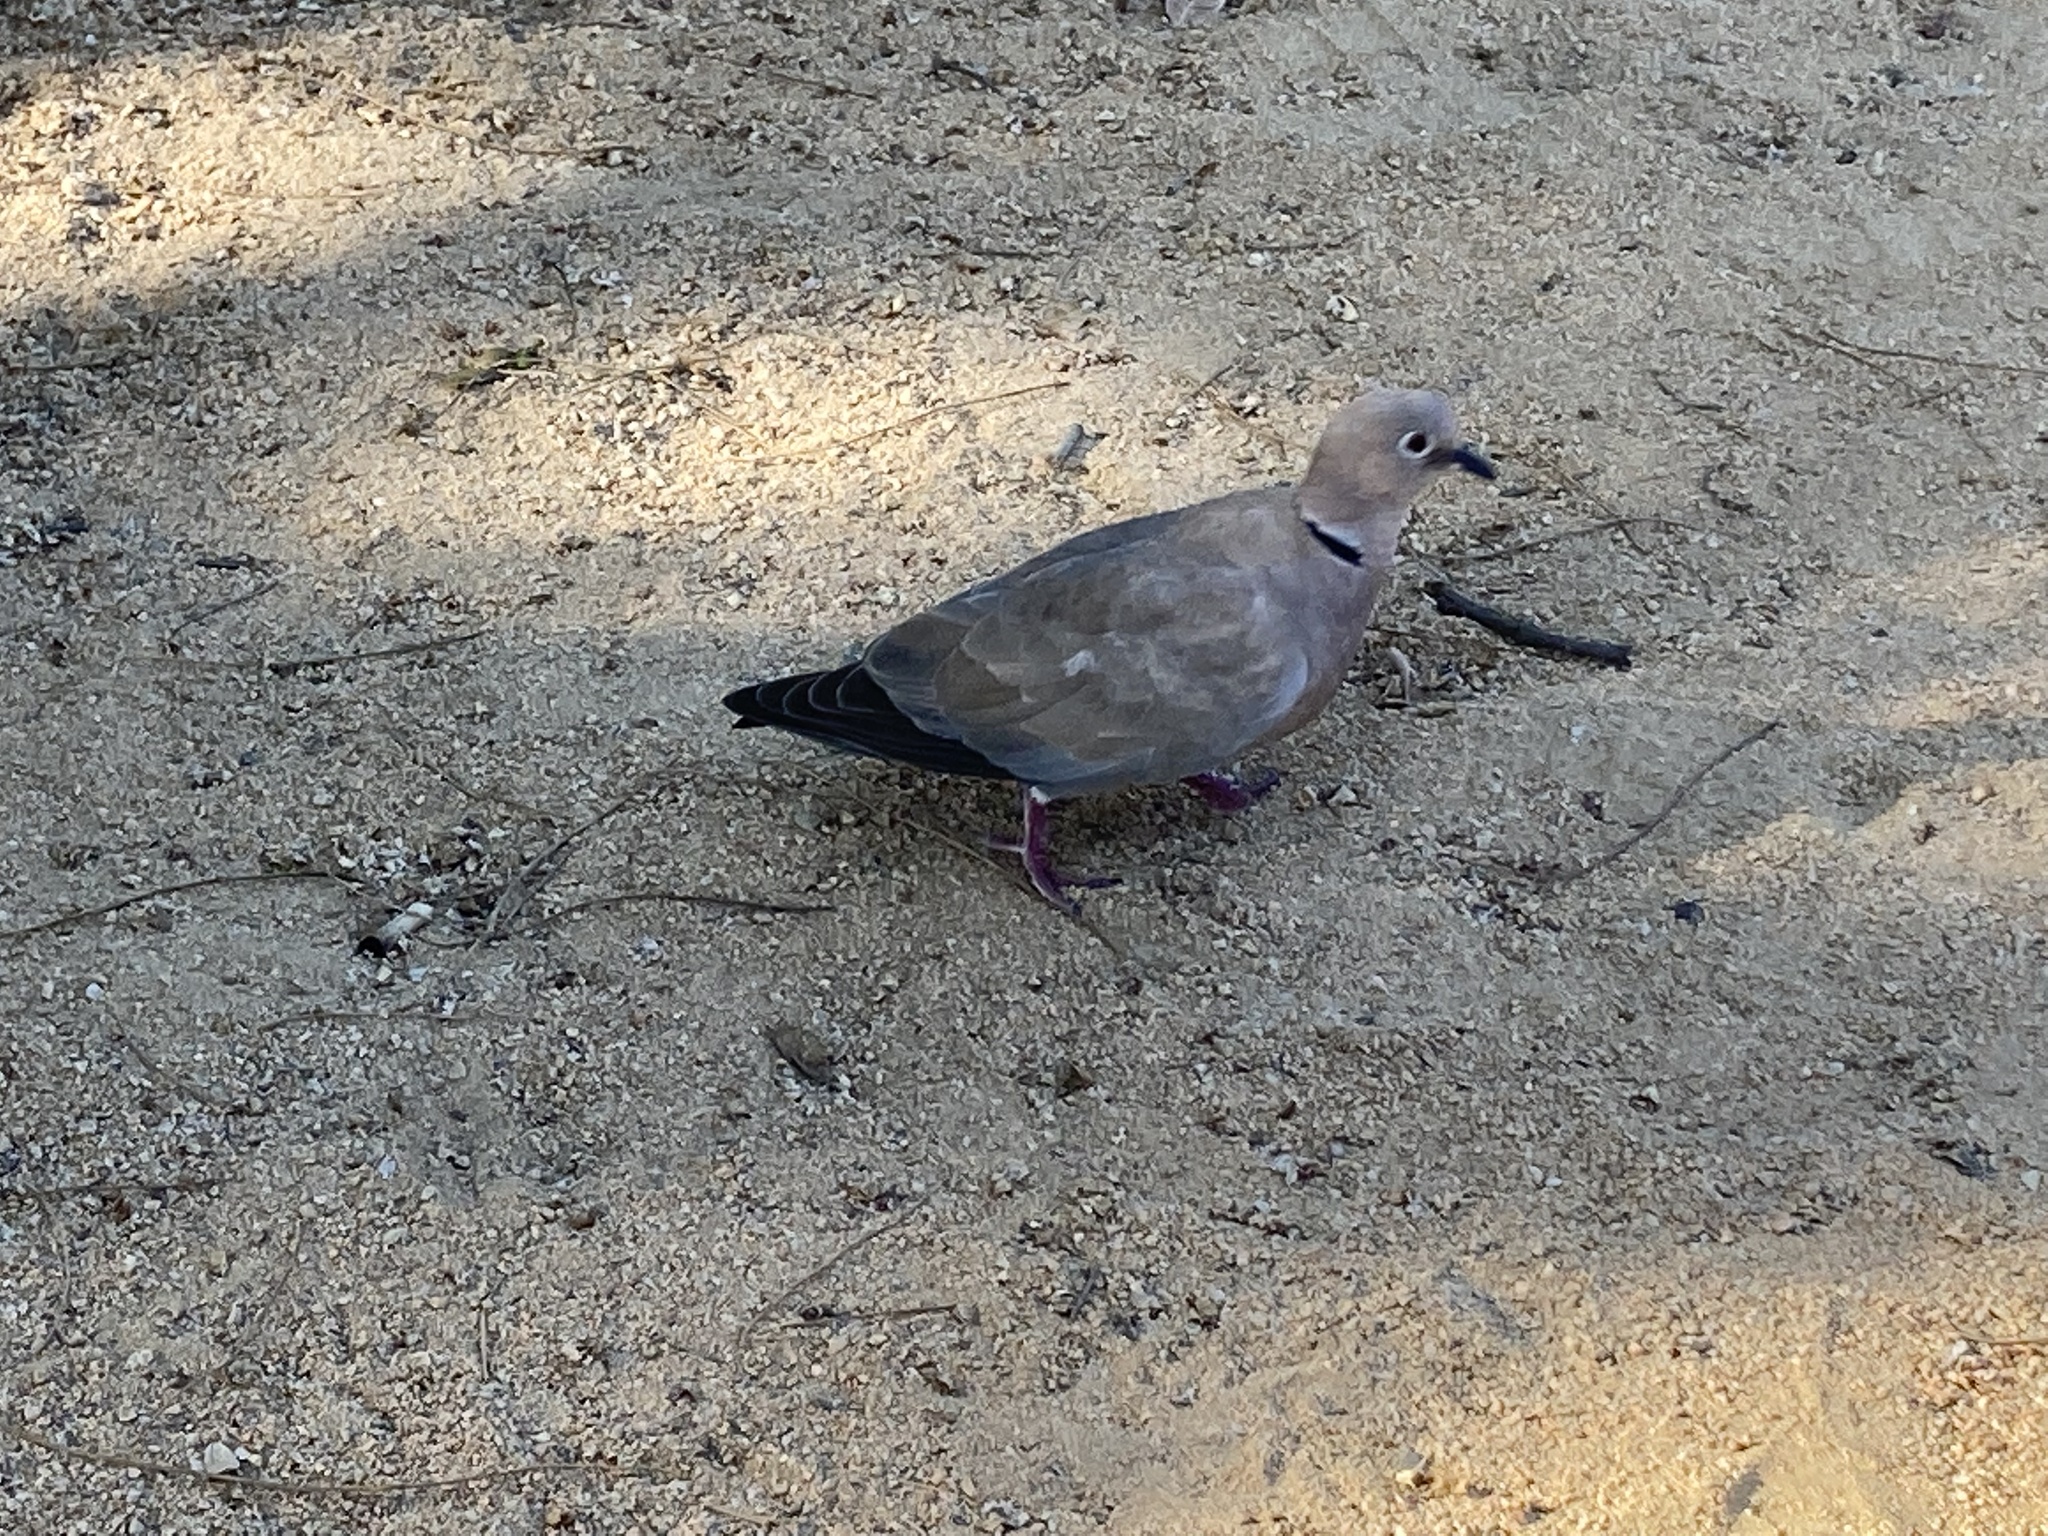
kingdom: Animalia
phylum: Chordata
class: Aves
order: Columbiformes
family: Columbidae
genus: Streptopelia
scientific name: Streptopelia decaocto
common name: Eurasian collared dove
